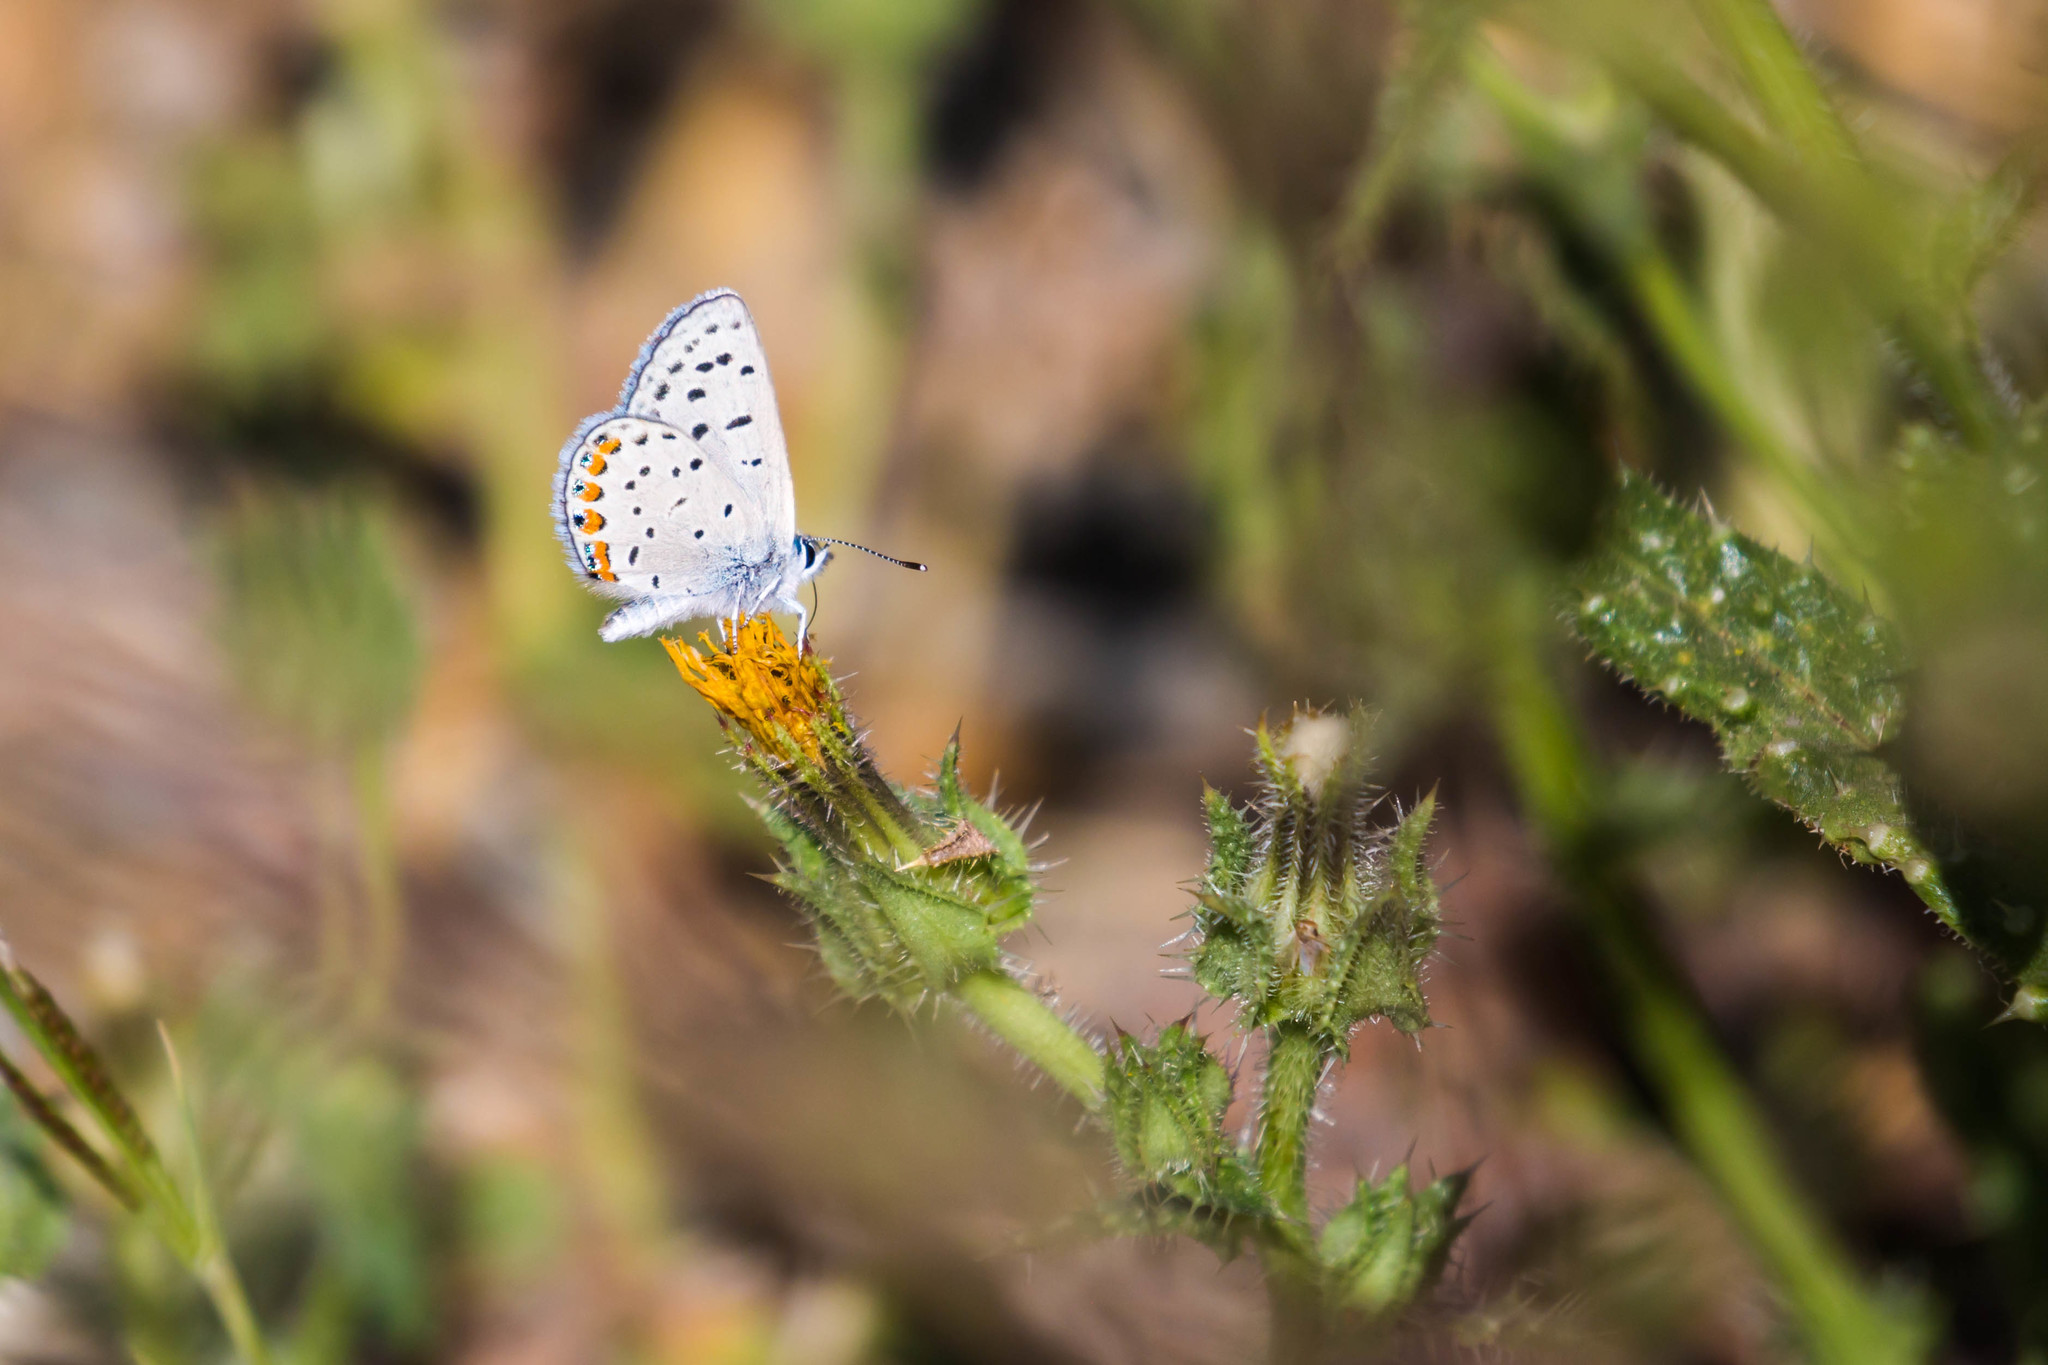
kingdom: Animalia
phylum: Arthropoda
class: Insecta
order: Lepidoptera
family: Lycaenidae
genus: Icaricia
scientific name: Icaricia acmon
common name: Acmon blue
